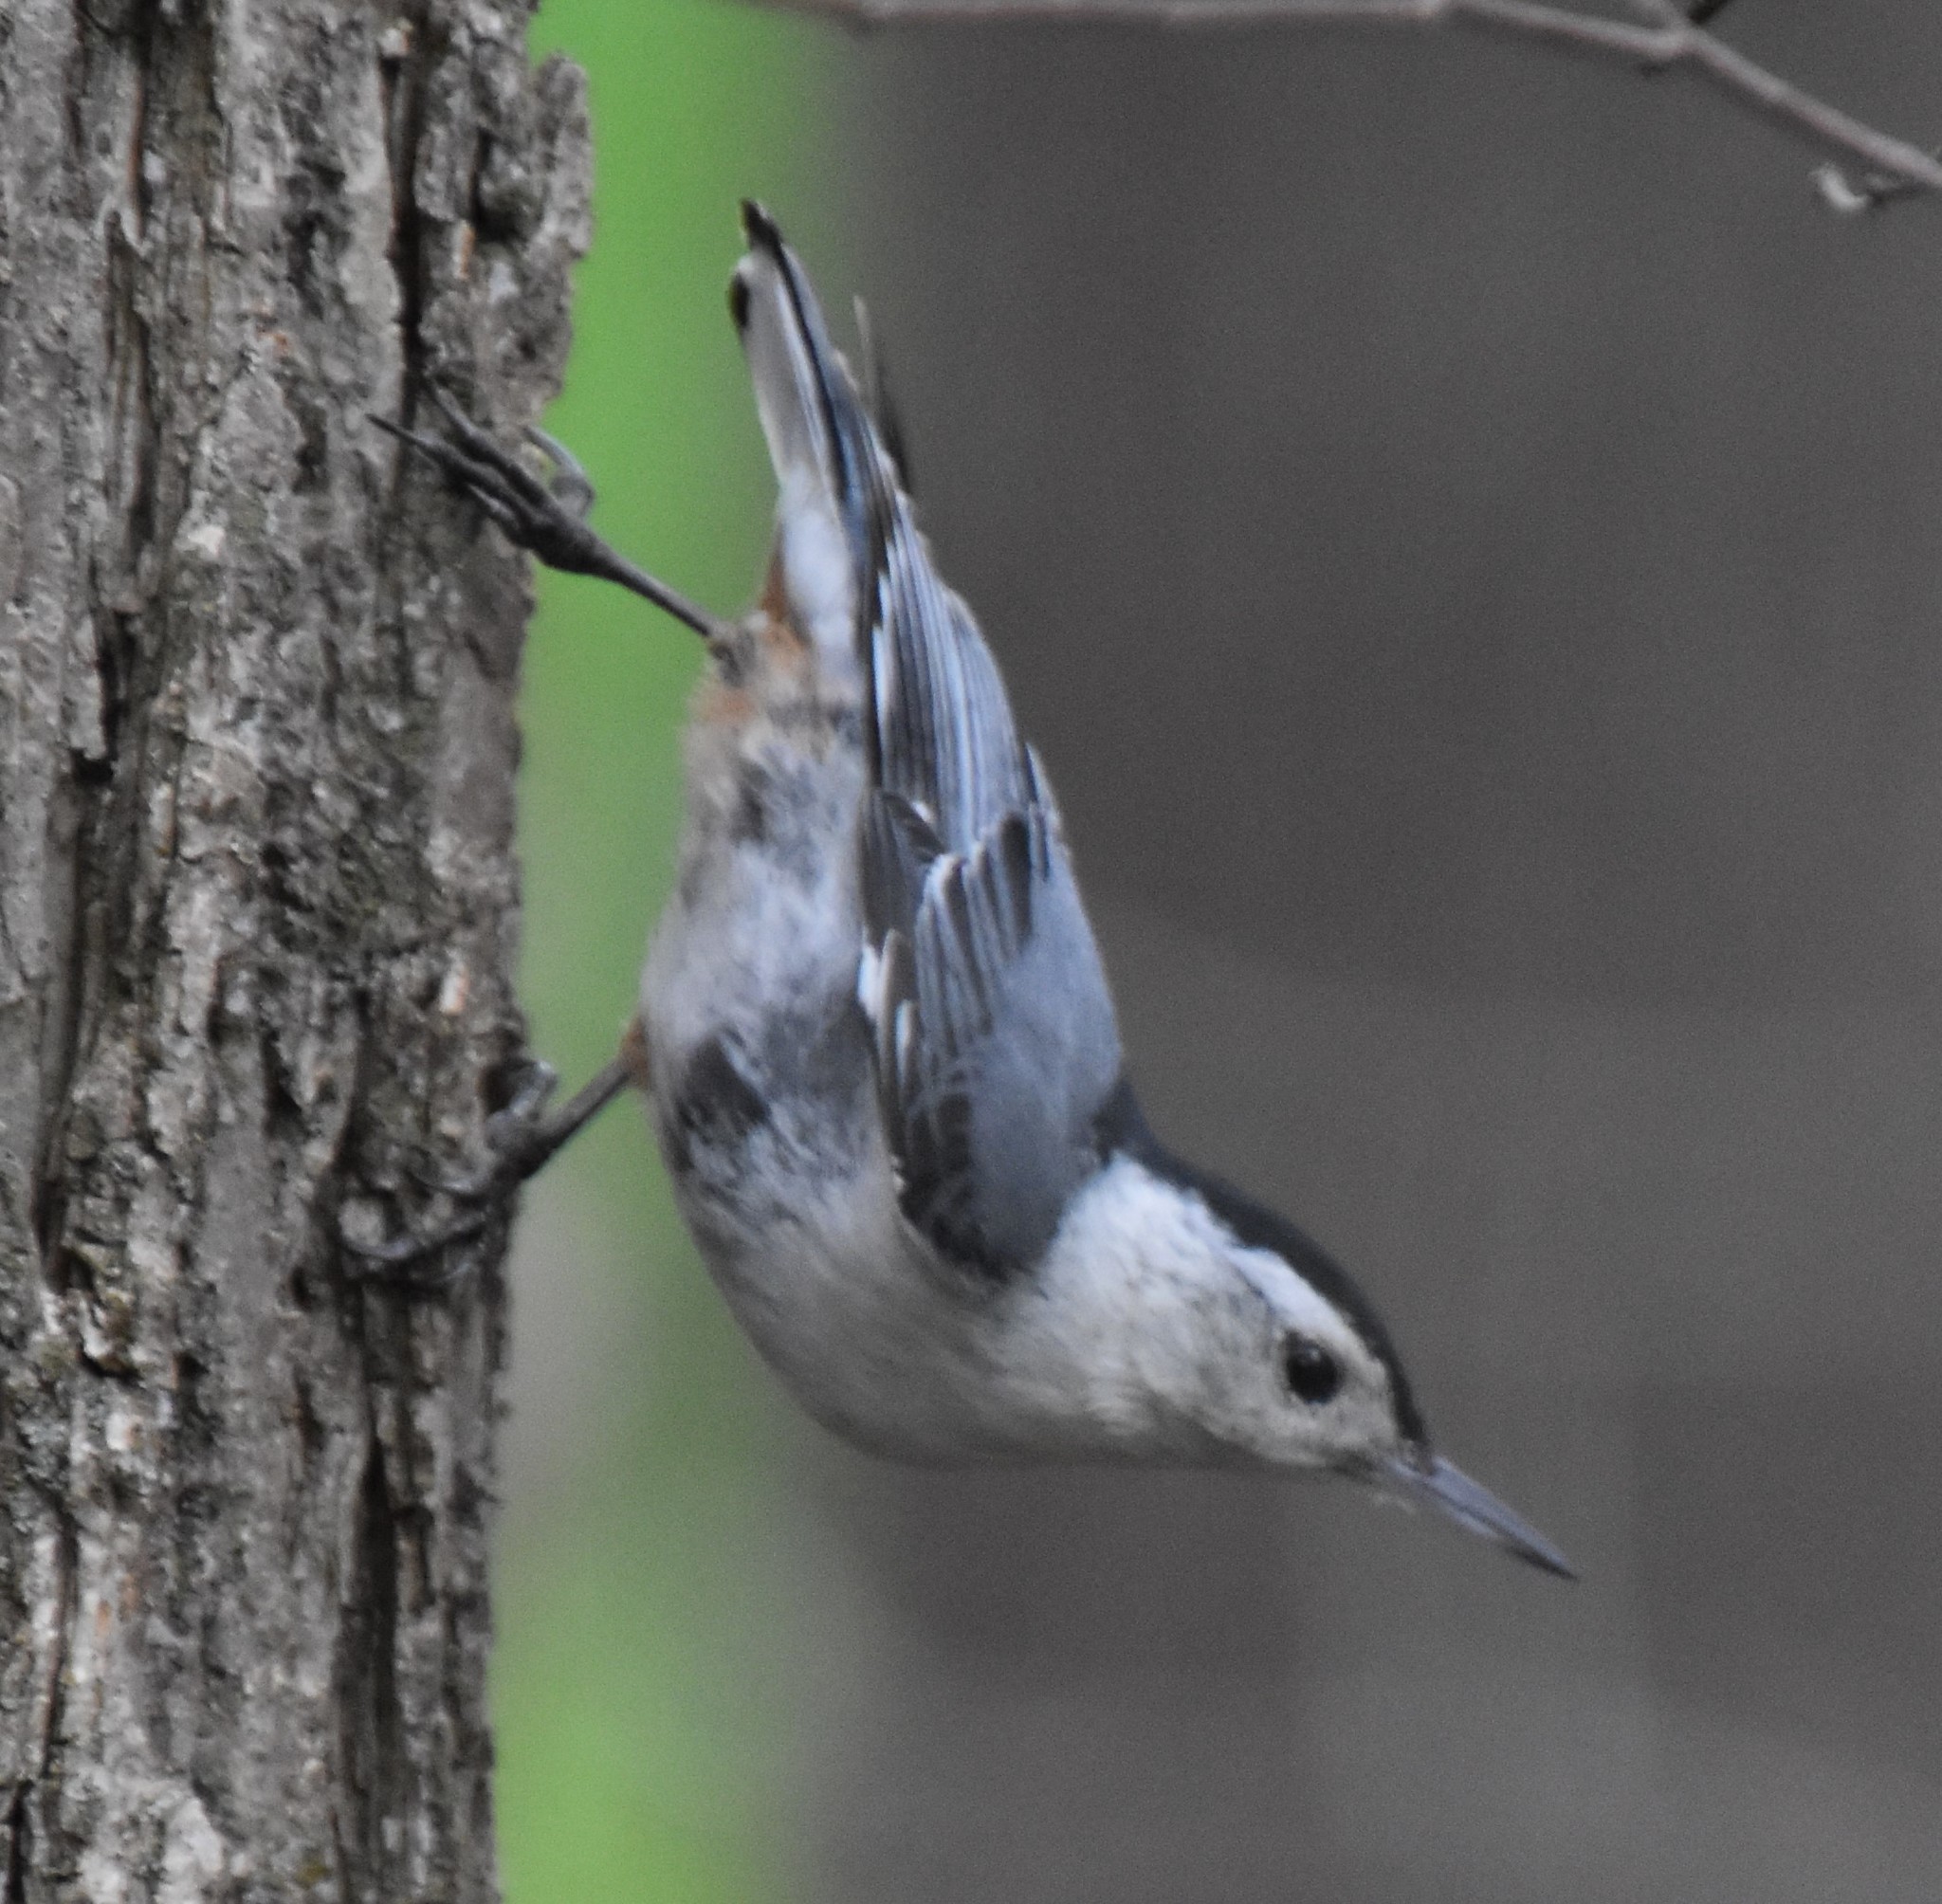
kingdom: Animalia
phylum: Chordata
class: Aves
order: Passeriformes
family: Sittidae
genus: Sitta
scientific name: Sitta carolinensis
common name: White-breasted nuthatch
